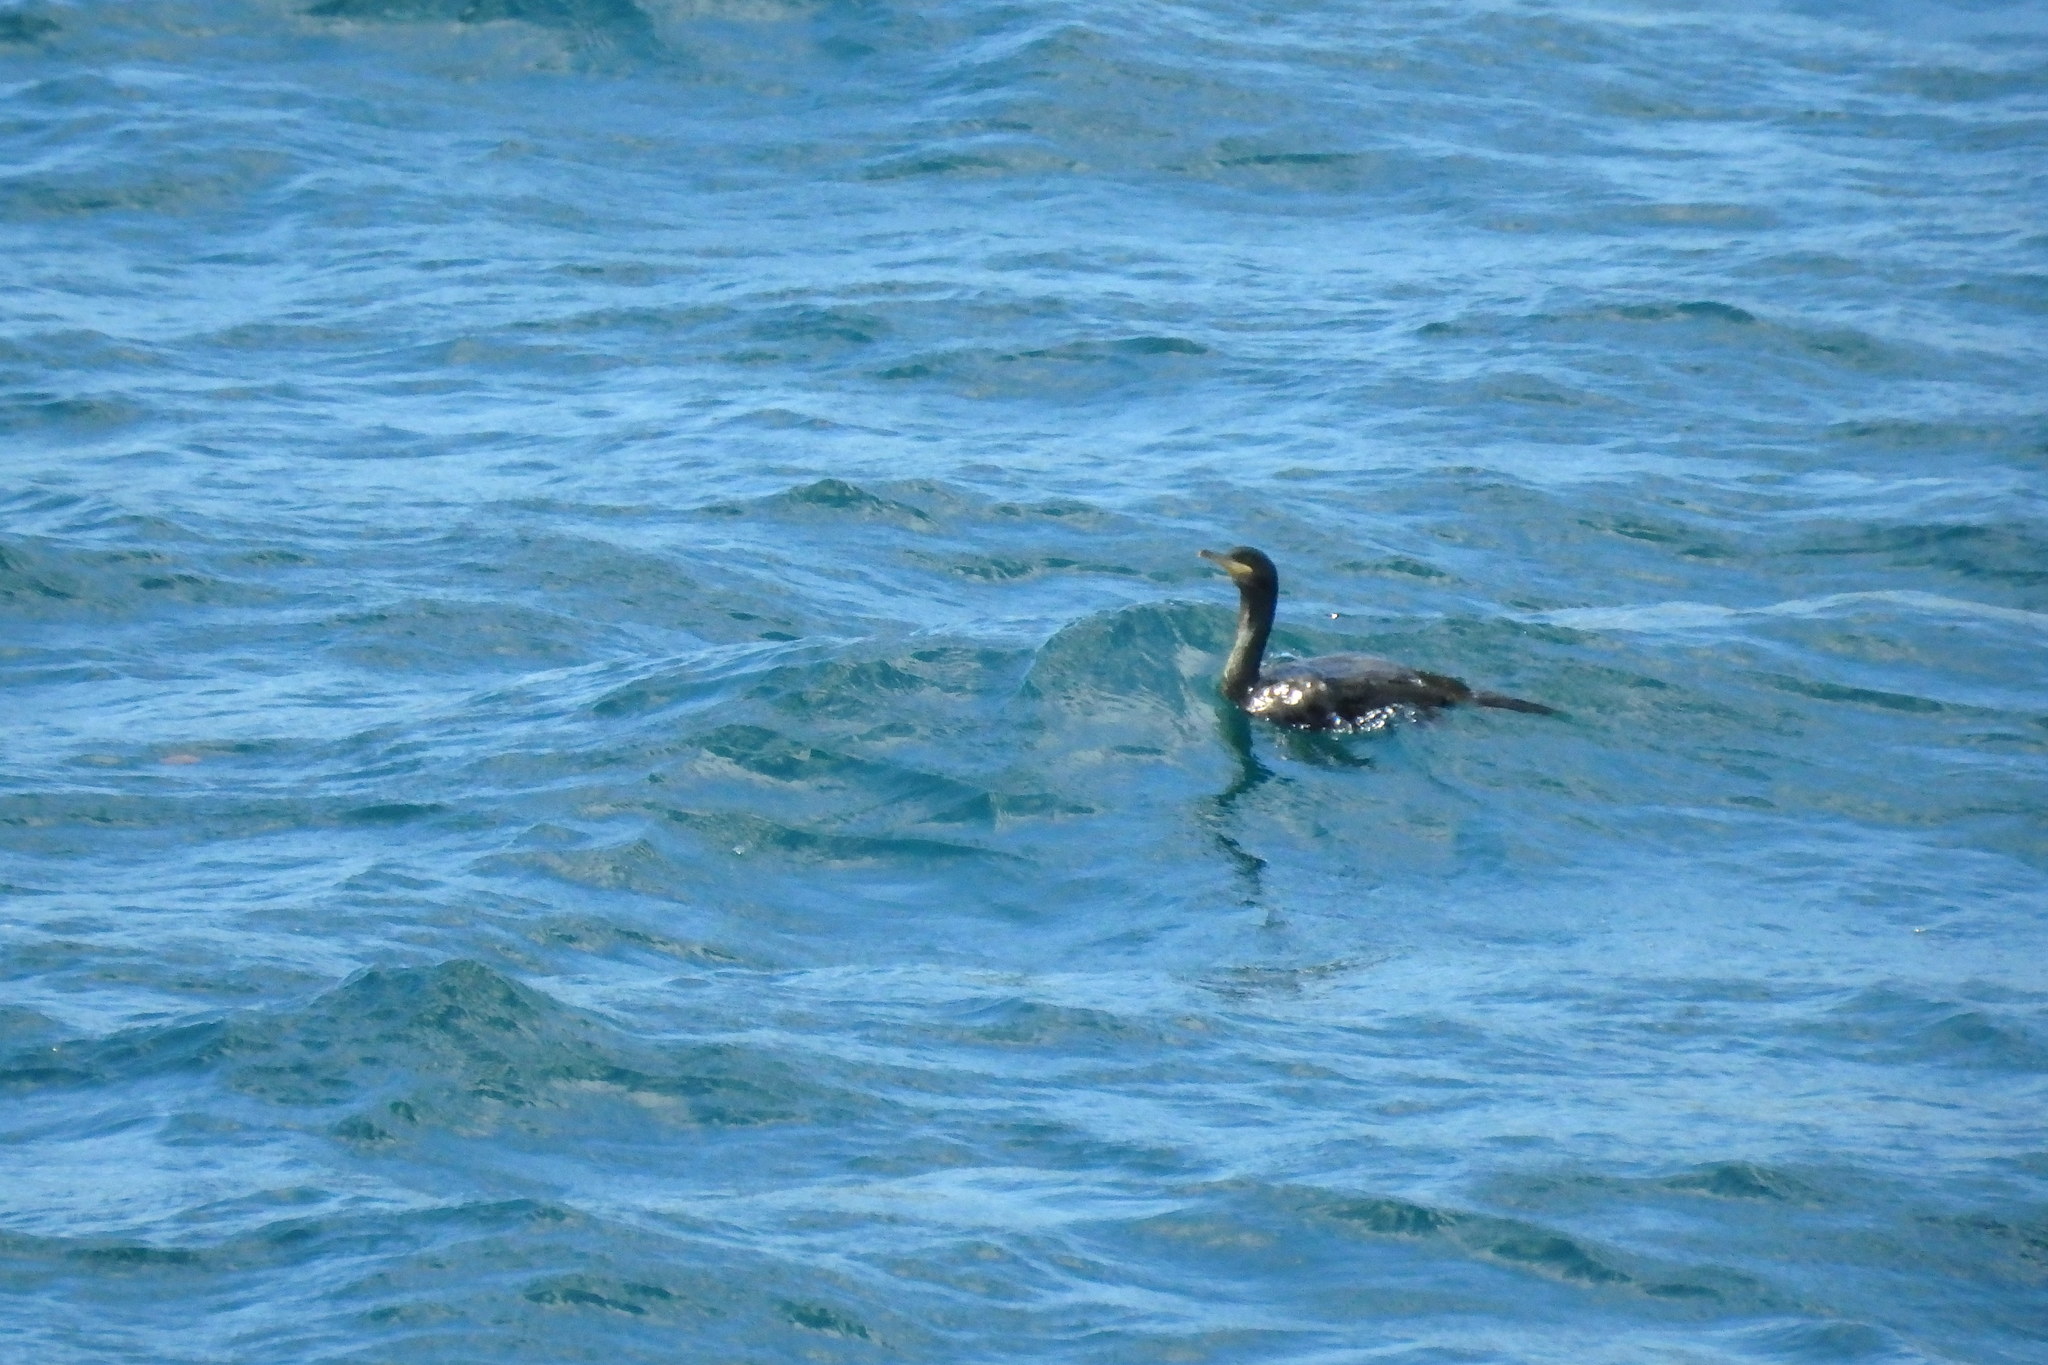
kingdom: Animalia
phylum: Chordata
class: Aves
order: Suliformes
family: Phalacrocoracidae
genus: Phalacrocorax
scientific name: Phalacrocorax aristotelis
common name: European shag
